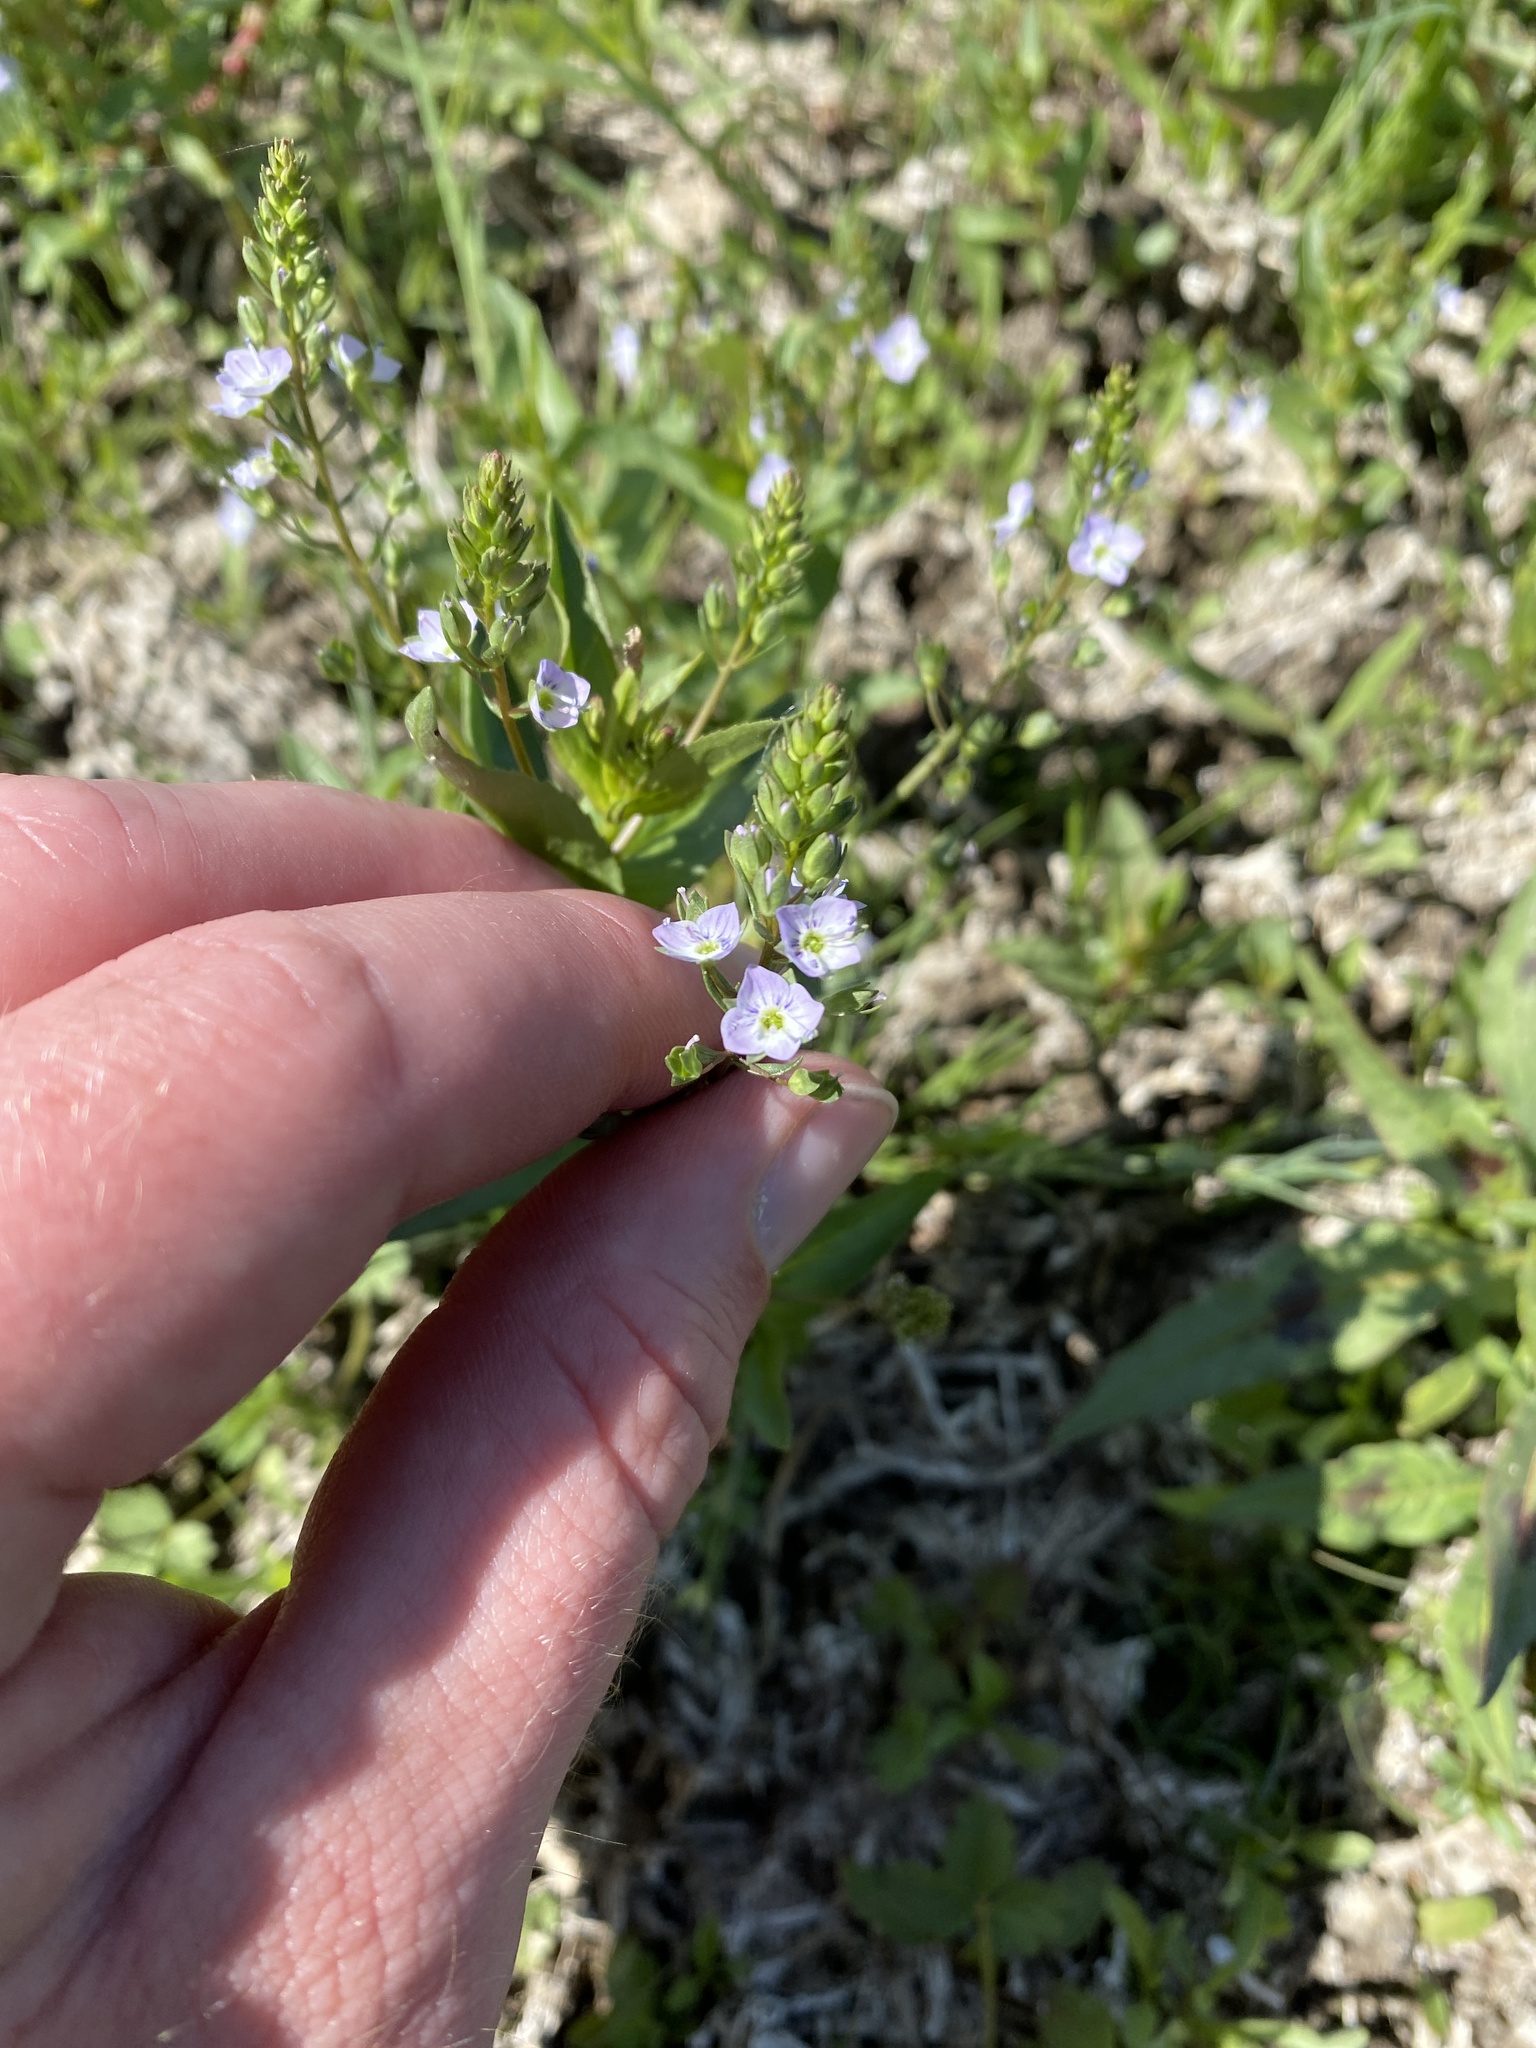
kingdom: Plantae
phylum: Tracheophyta
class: Magnoliopsida
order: Lamiales
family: Plantaginaceae
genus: Veronica
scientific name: Veronica anagallis-aquatica
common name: Water speedwell
